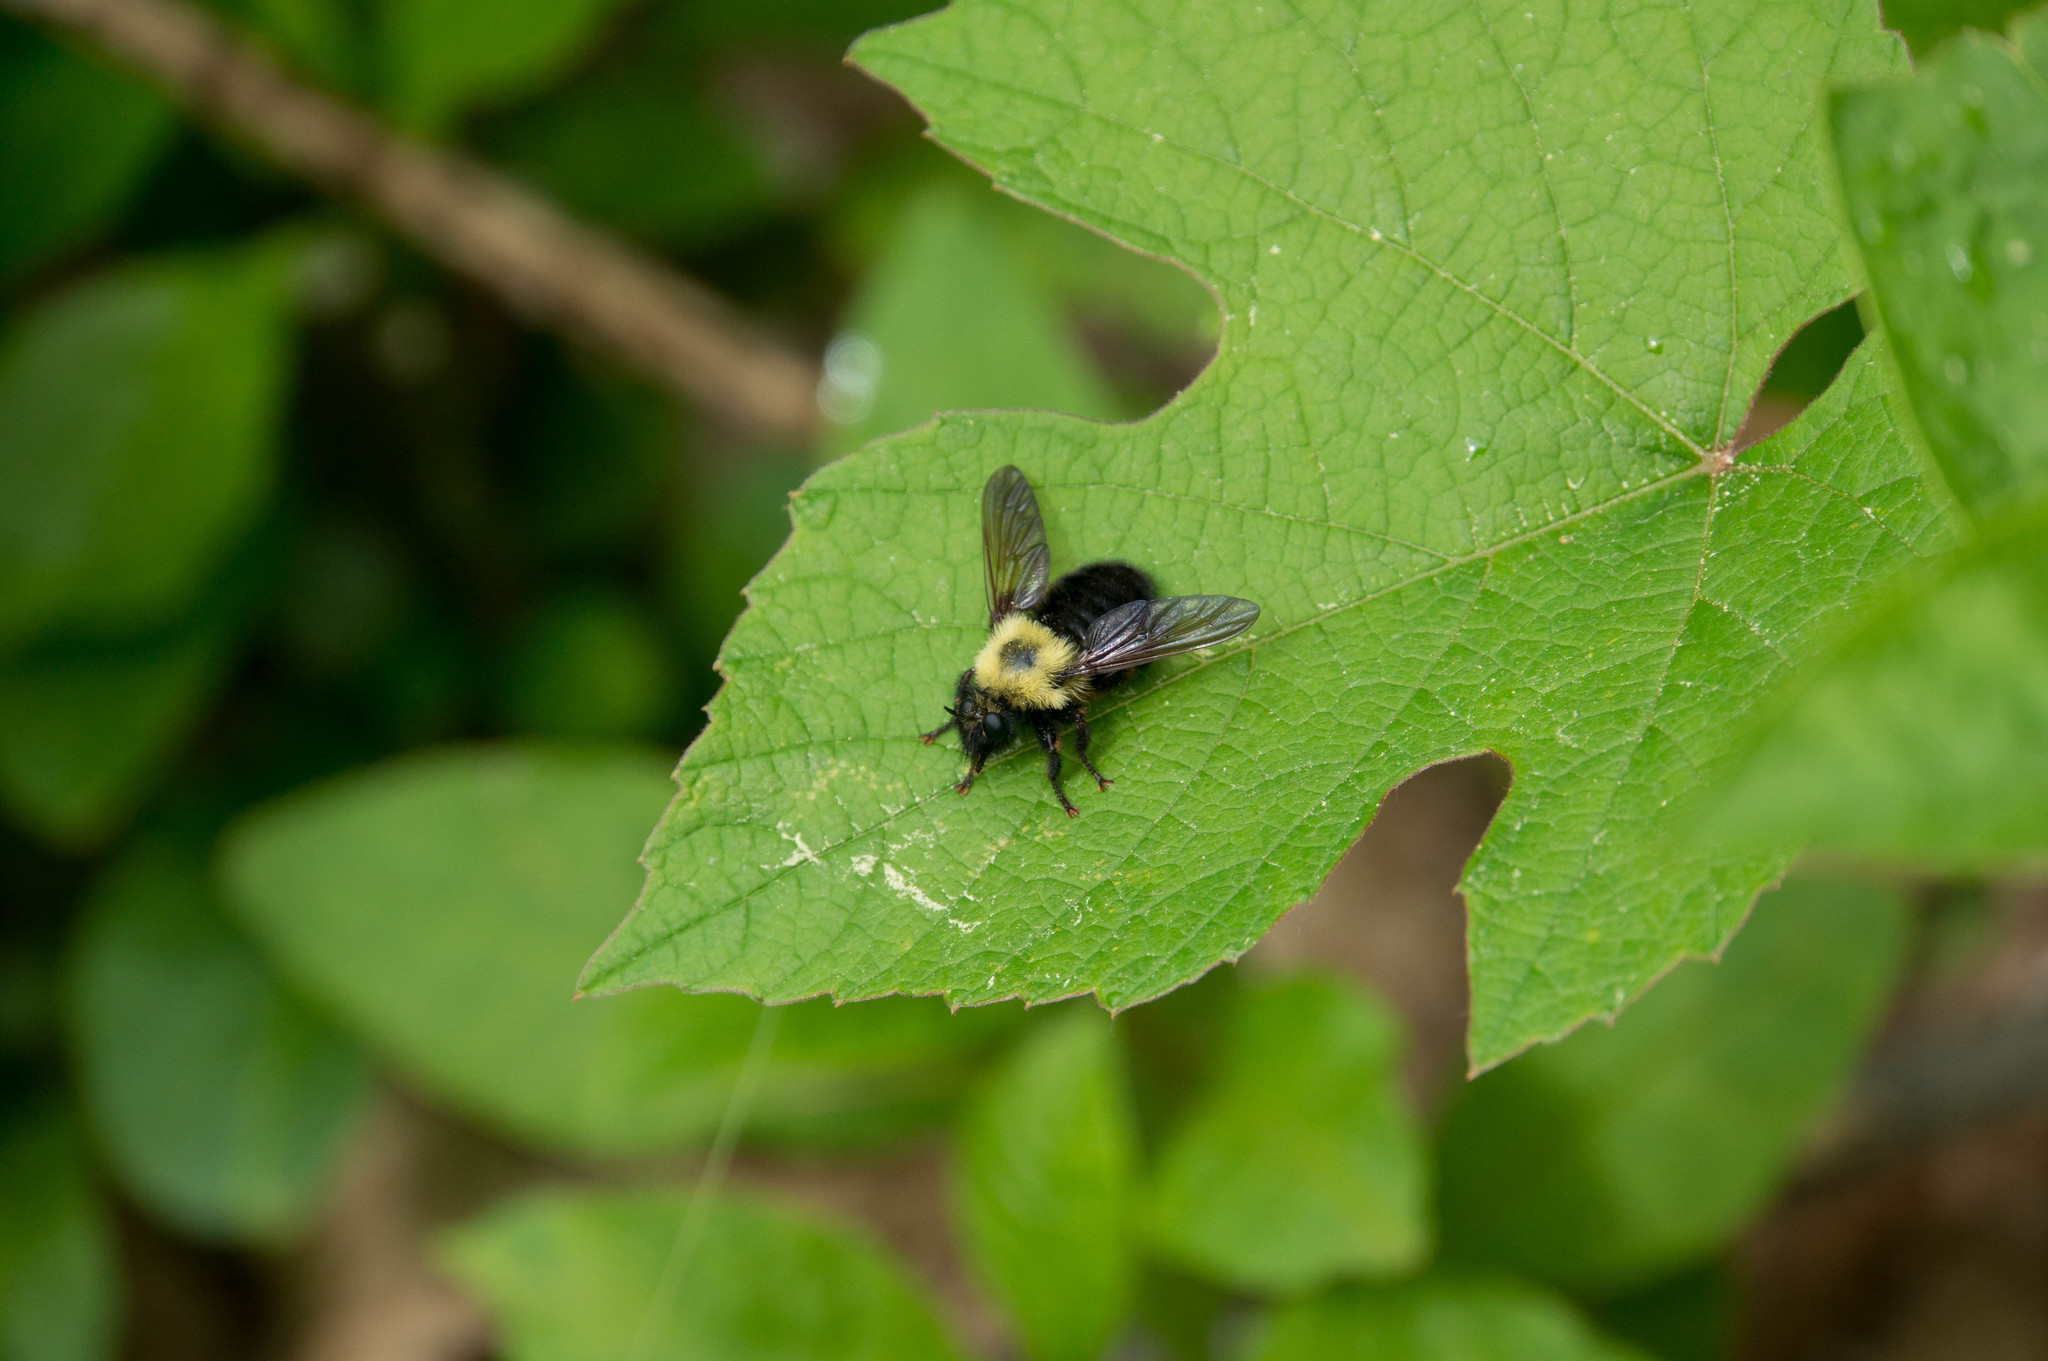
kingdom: Animalia
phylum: Arthropoda
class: Insecta
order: Diptera
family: Asilidae
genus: Laphria
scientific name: Laphria thoracica
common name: Bumble bee mimic robber fly
